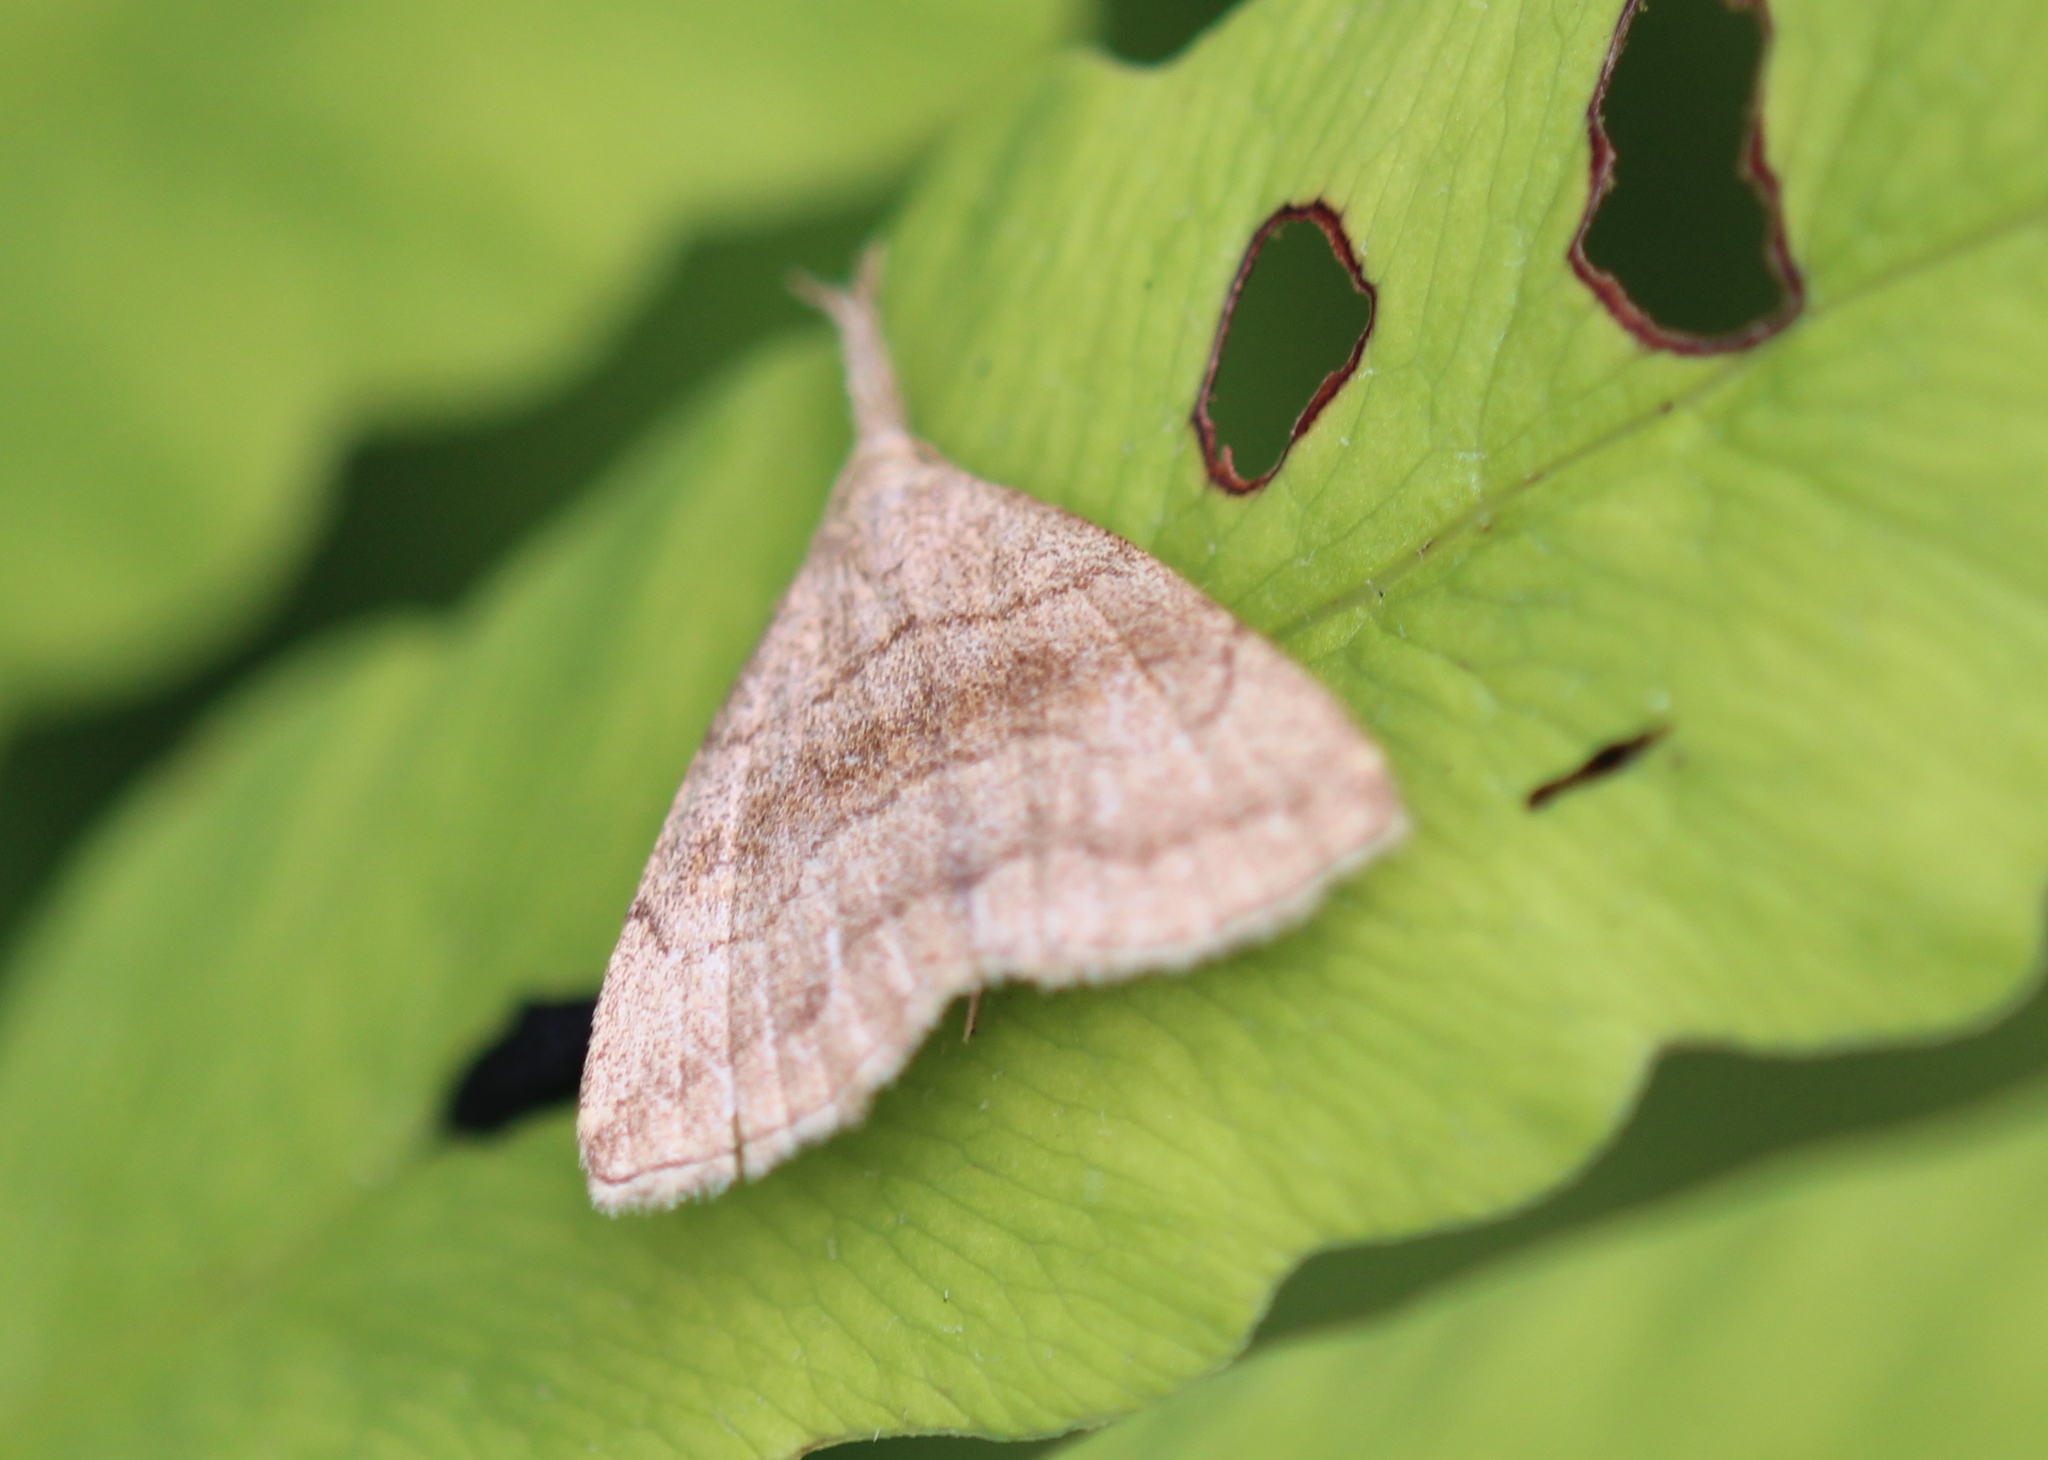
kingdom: Animalia
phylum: Arthropoda
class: Insecta
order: Lepidoptera
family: Erebidae
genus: Phalaenostola
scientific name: Phalaenostola metonalis
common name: Pale phalaenostola moth
